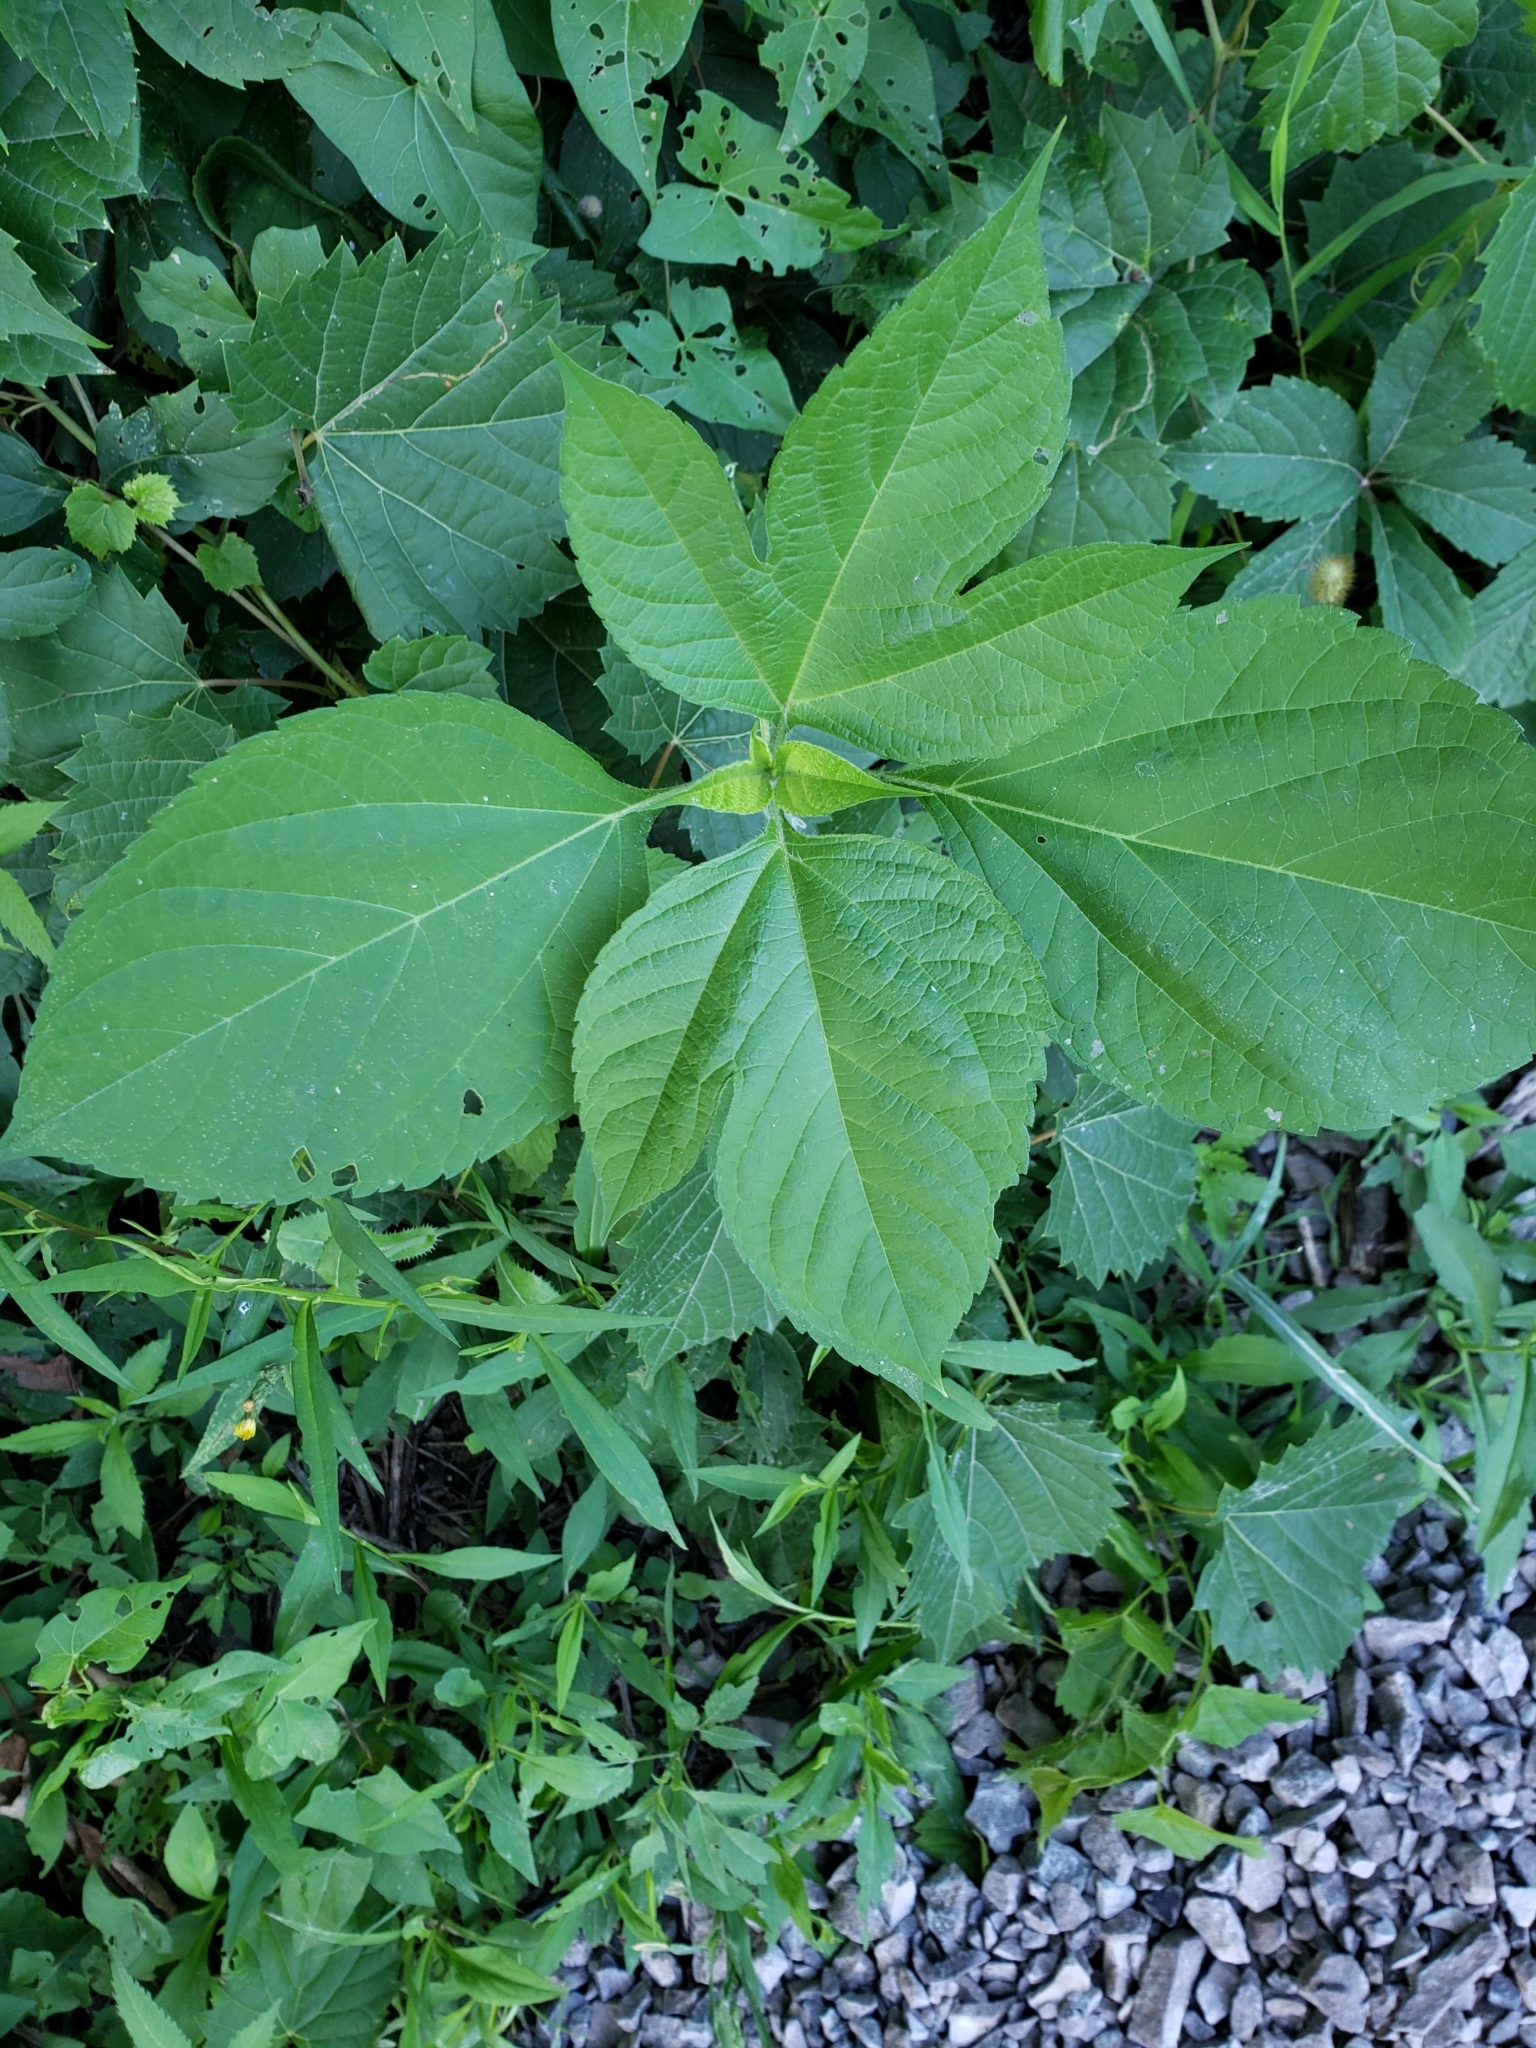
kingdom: Plantae
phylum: Tracheophyta
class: Magnoliopsida
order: Asterales
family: Asteraceae
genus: Ambrosia
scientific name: Ambrosia trifida
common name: Giant ragweed
